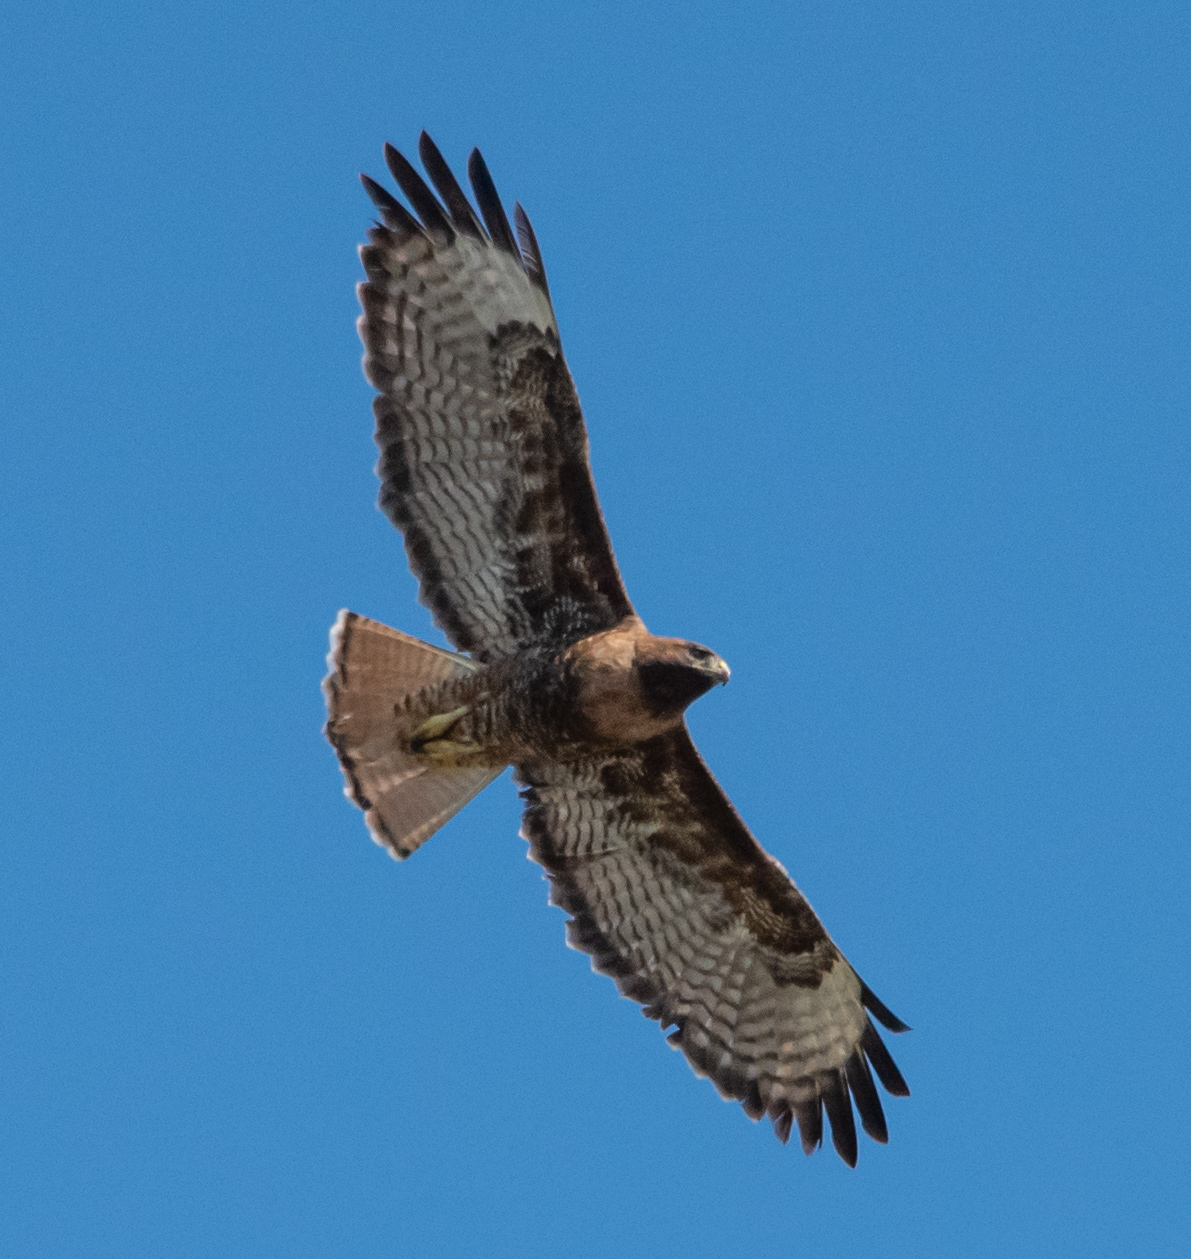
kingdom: Animalia
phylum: Chordata
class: Aves
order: Accipitriformes
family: Accipitridae
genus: Buteo
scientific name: Buteo jamaicensis
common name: Red-tailed hawk
